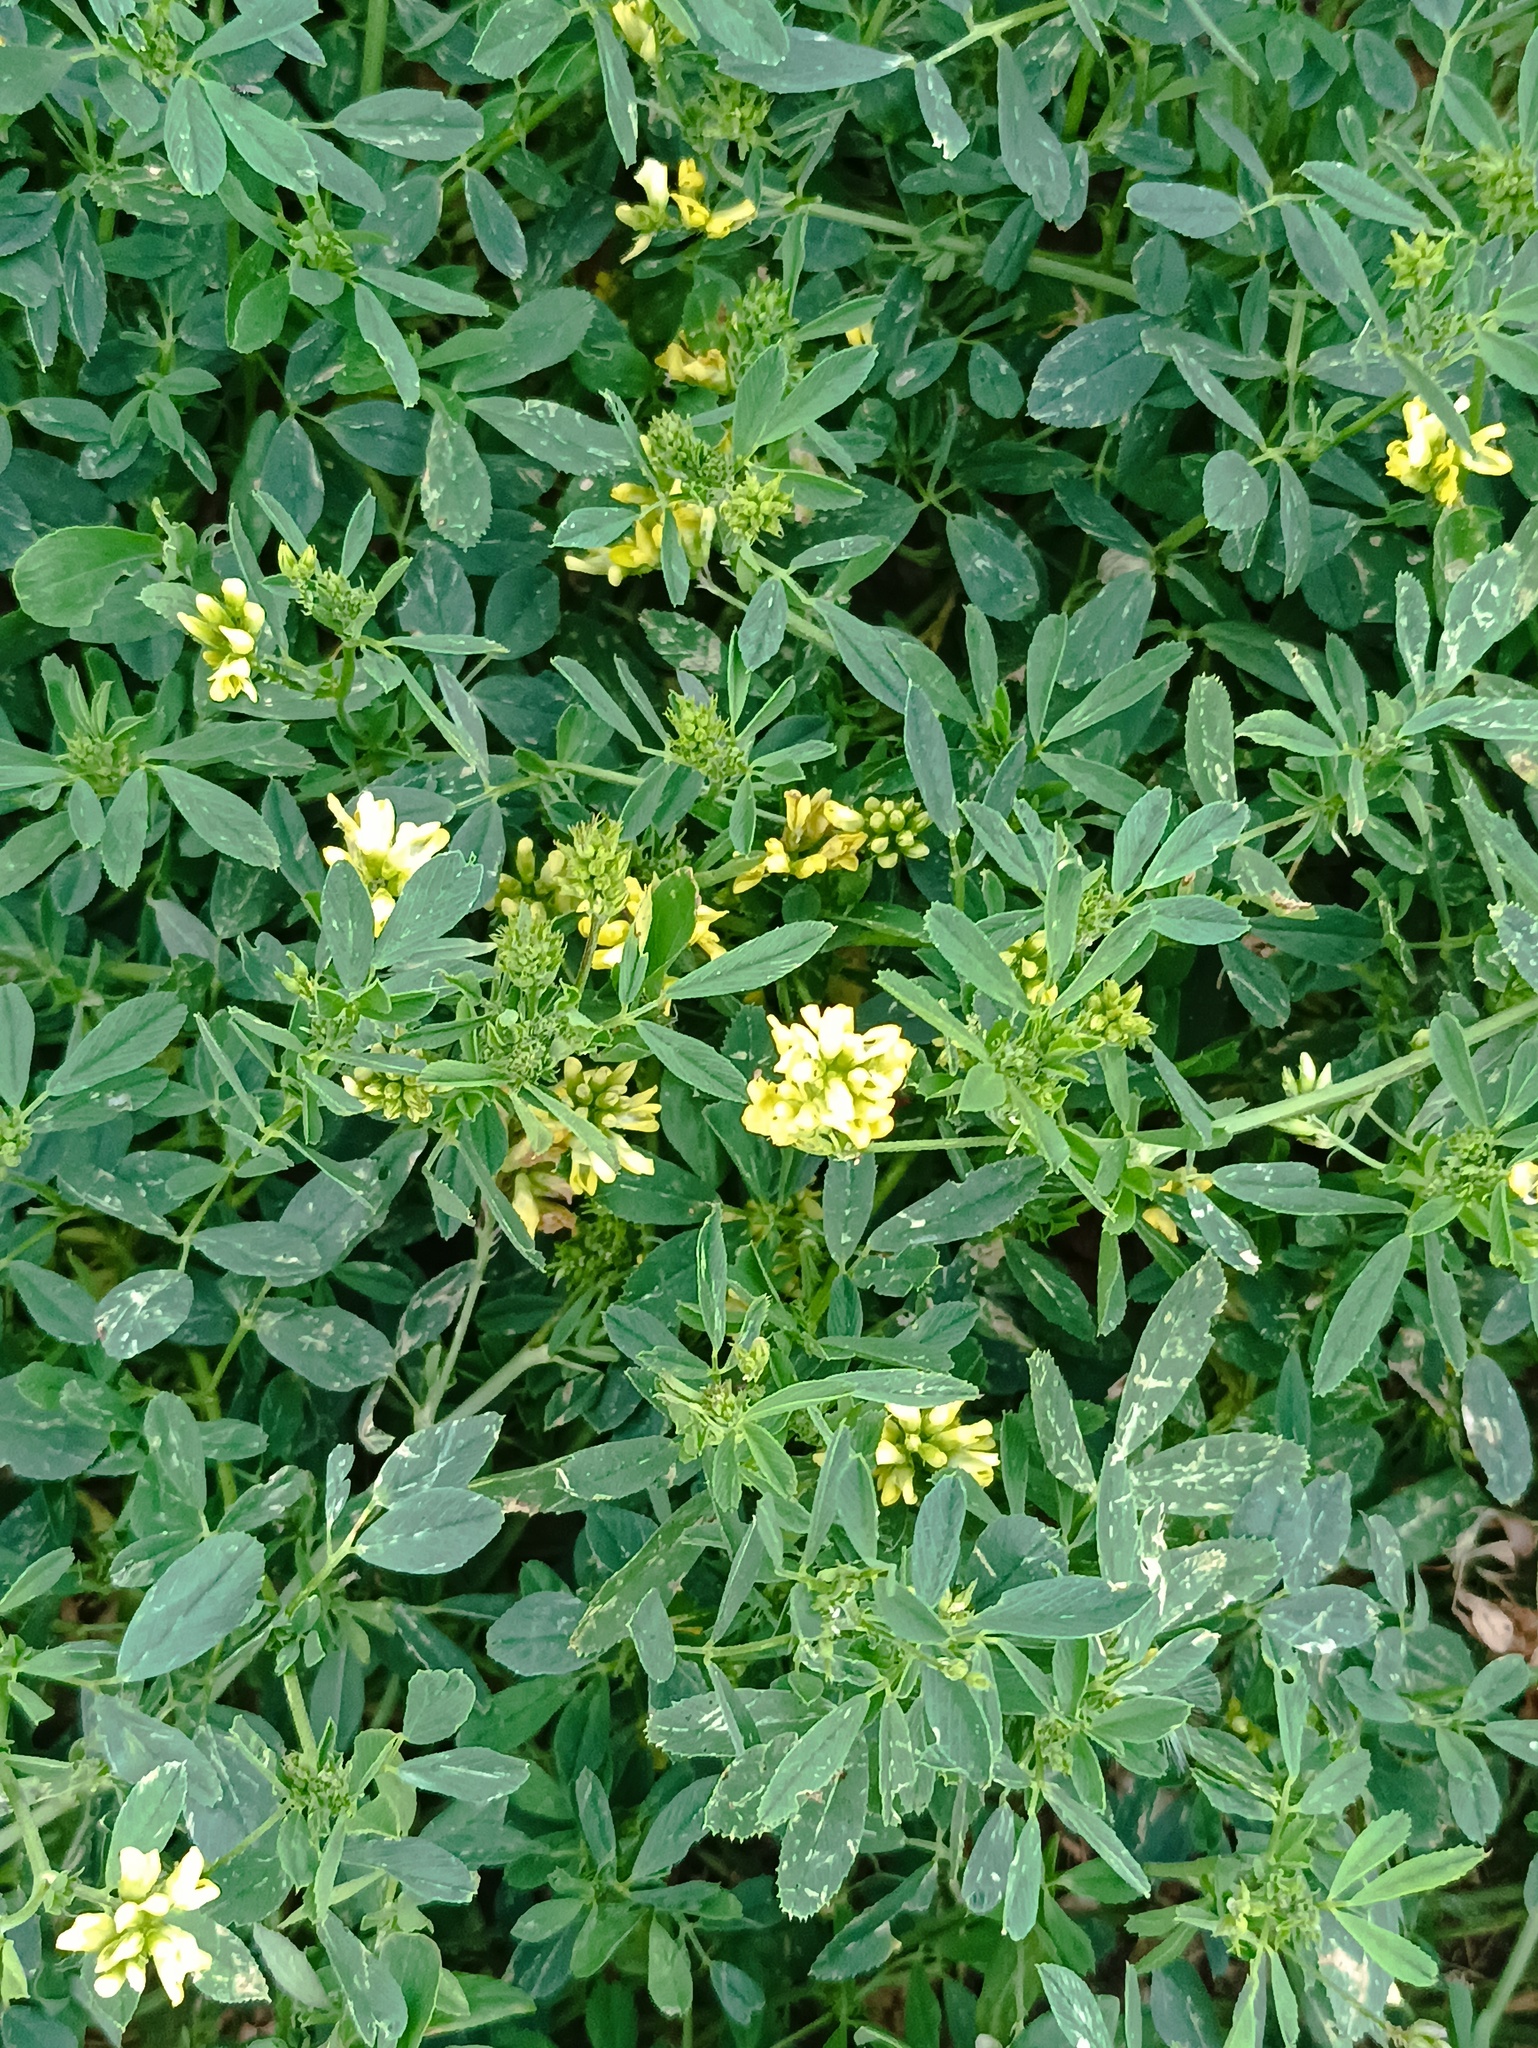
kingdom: Plantae
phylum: Tracheophyta
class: Magnoliopsida
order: Fabales
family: Fabaceae
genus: Medicago
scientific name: Medicago falcata
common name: Sickle medick
